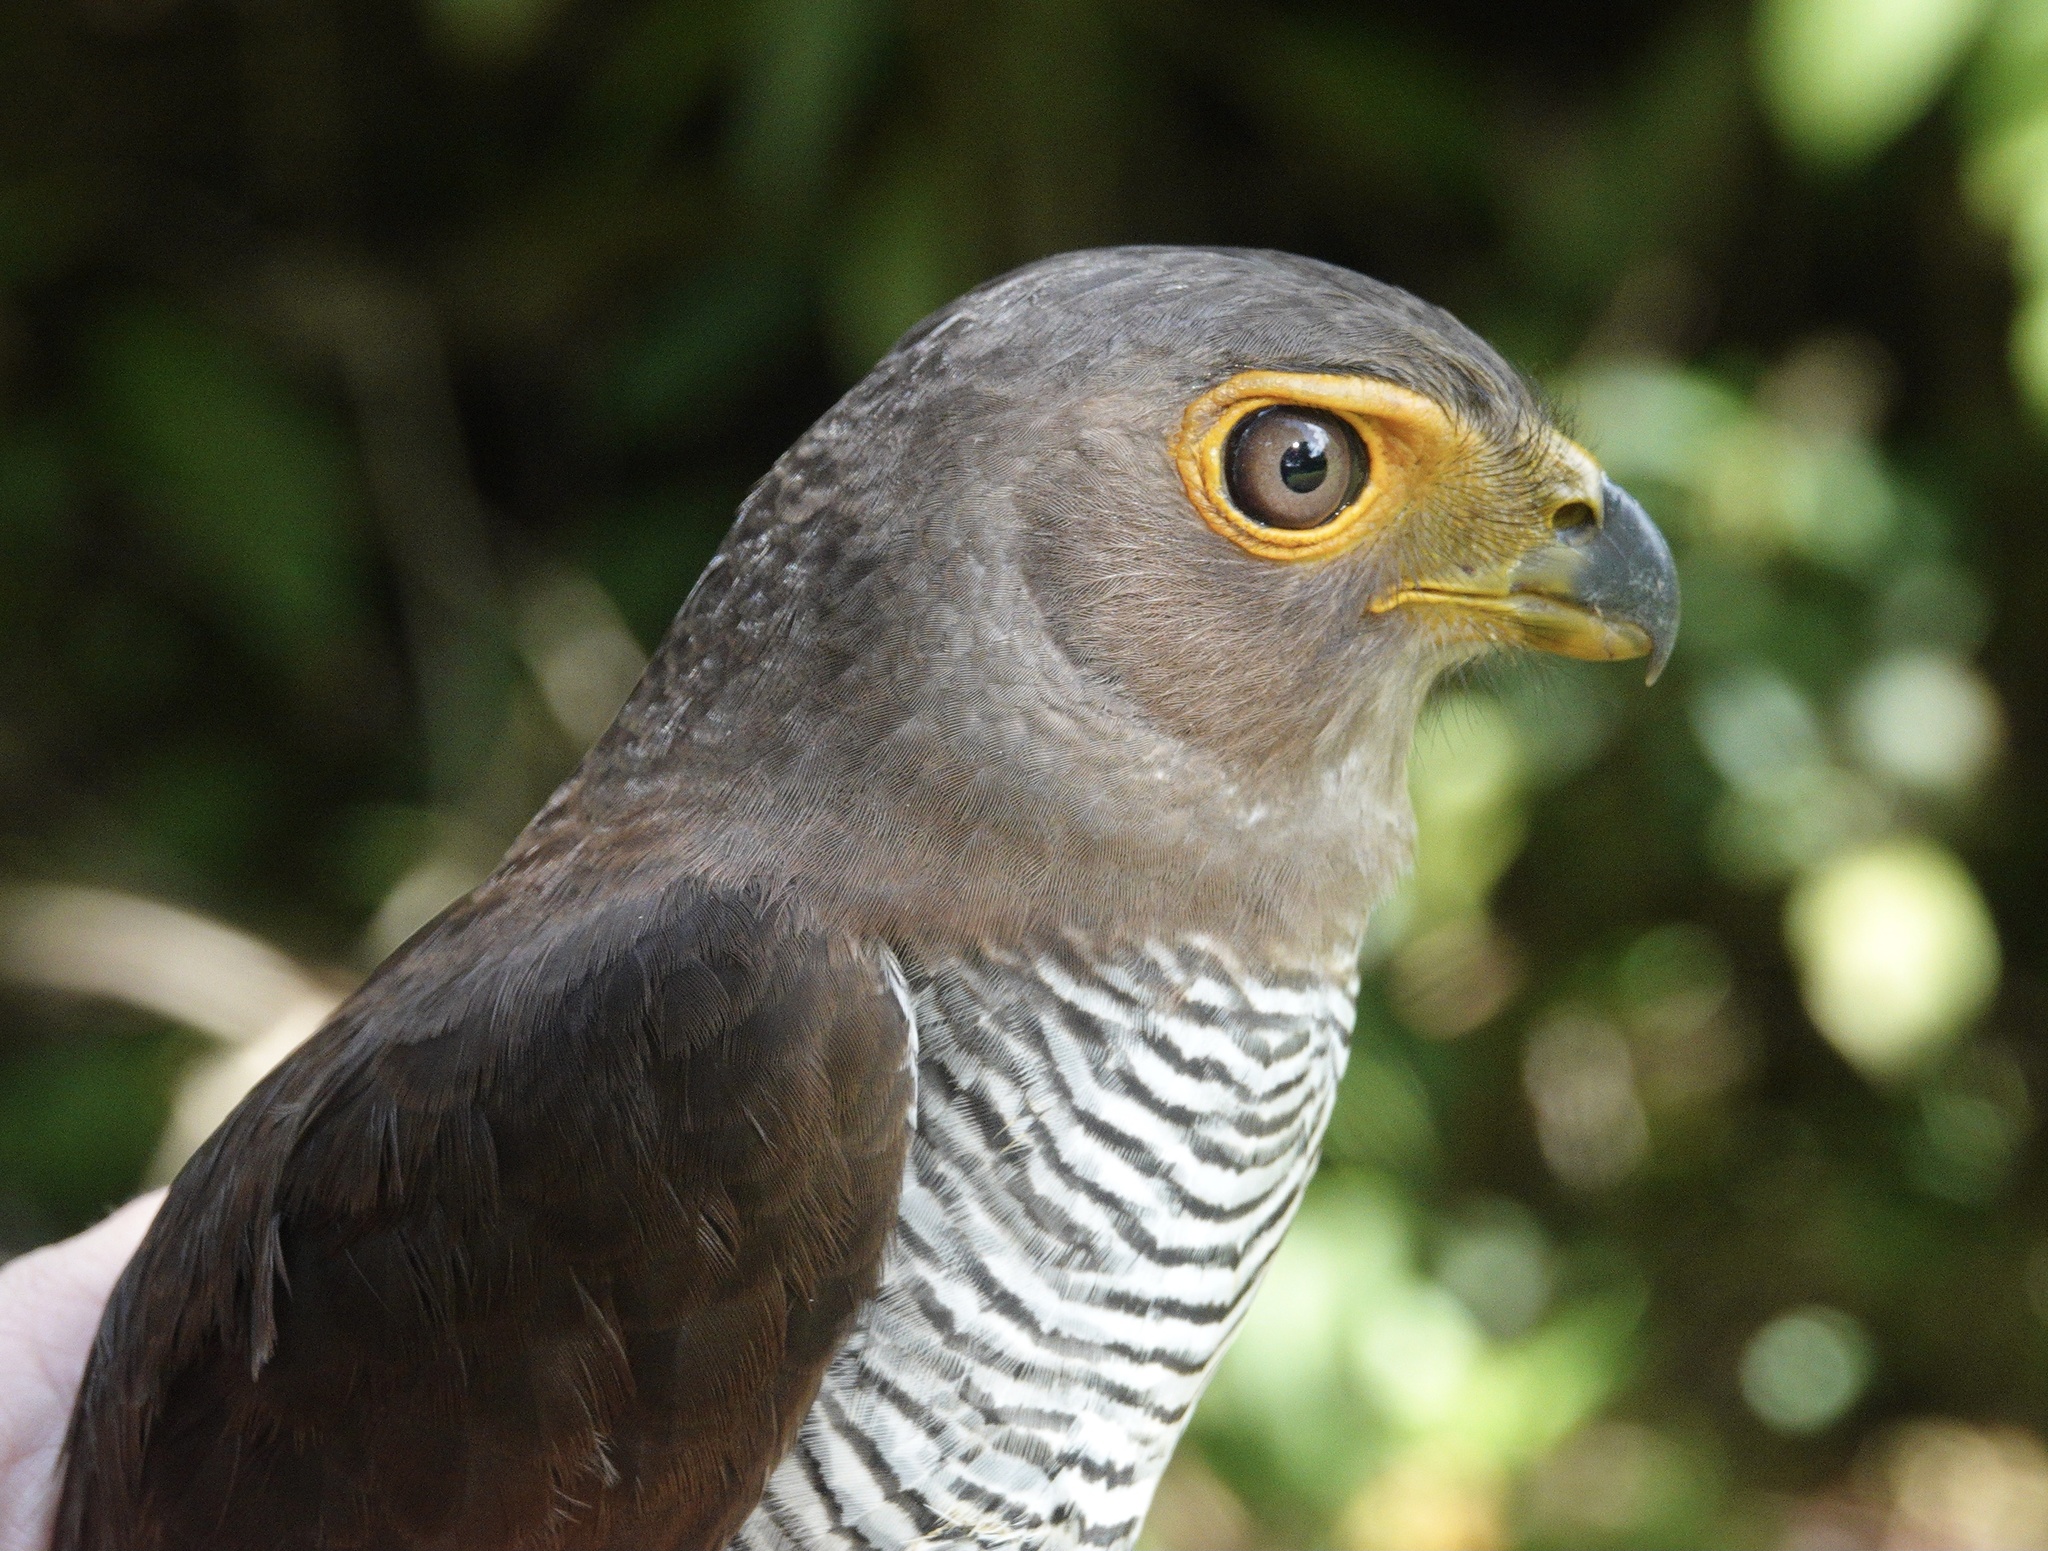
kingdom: Animalia
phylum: Chordata
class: Aves
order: Falconiformes
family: Falconidae
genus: Micrastur
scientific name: Micrastur ruficollis
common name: Barred forest-falcon
